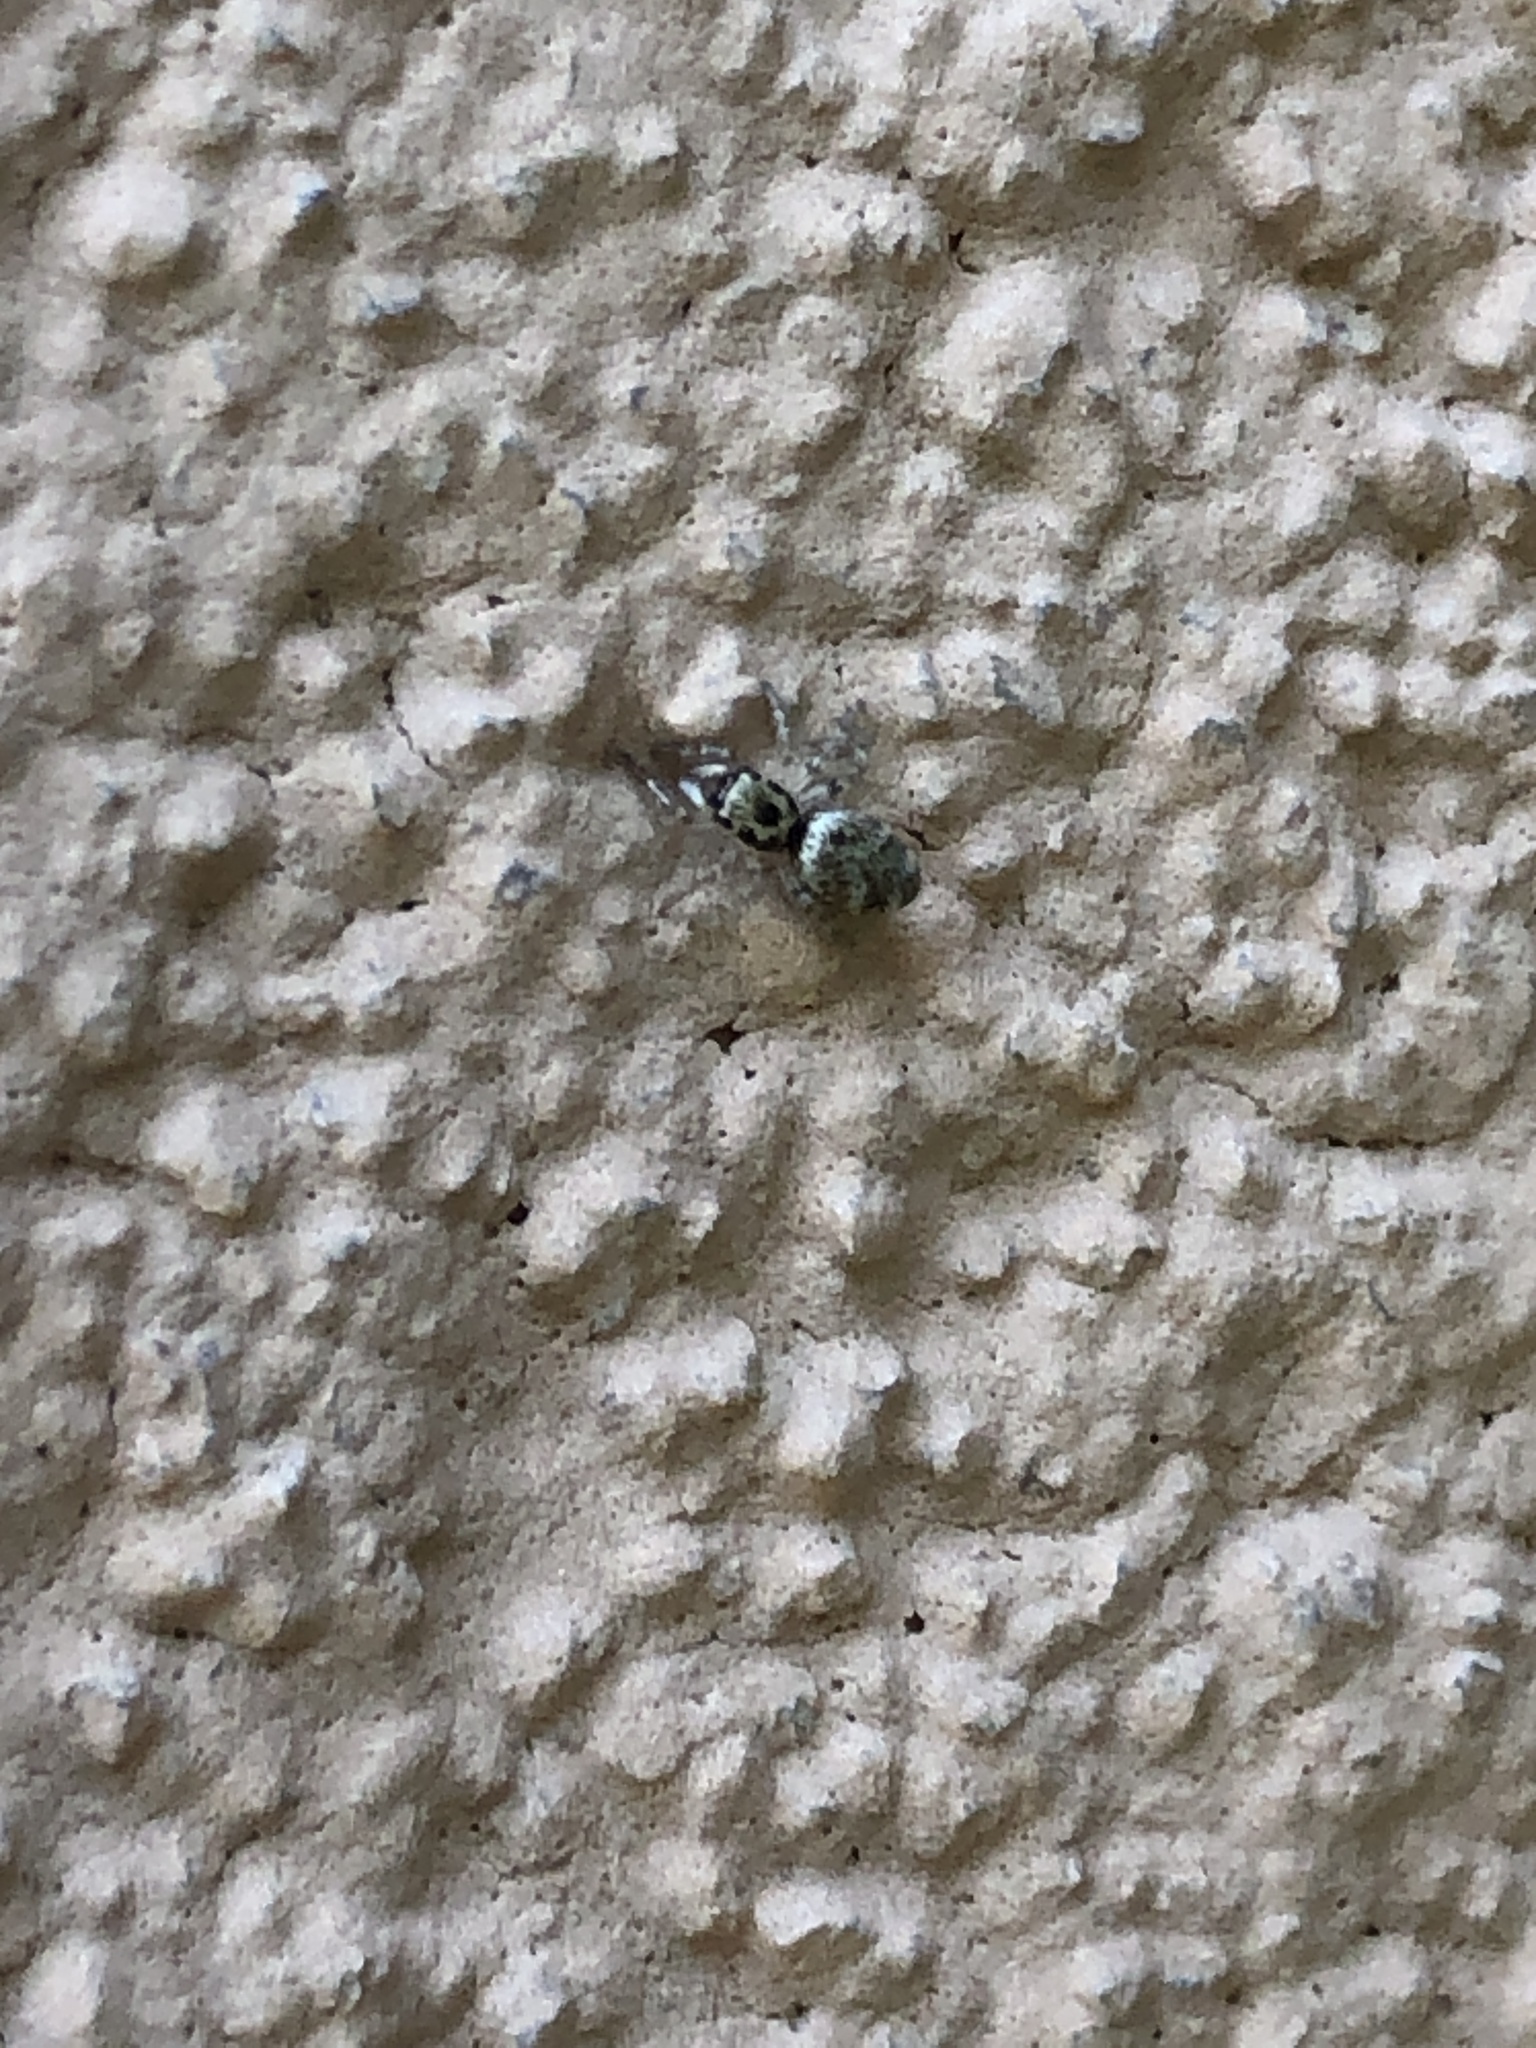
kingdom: Animalia
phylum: Arthropoda
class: Arachnida
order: Araneae
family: Salticidae
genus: Salticus
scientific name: Salticus scenicus
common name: Zebra jumper
